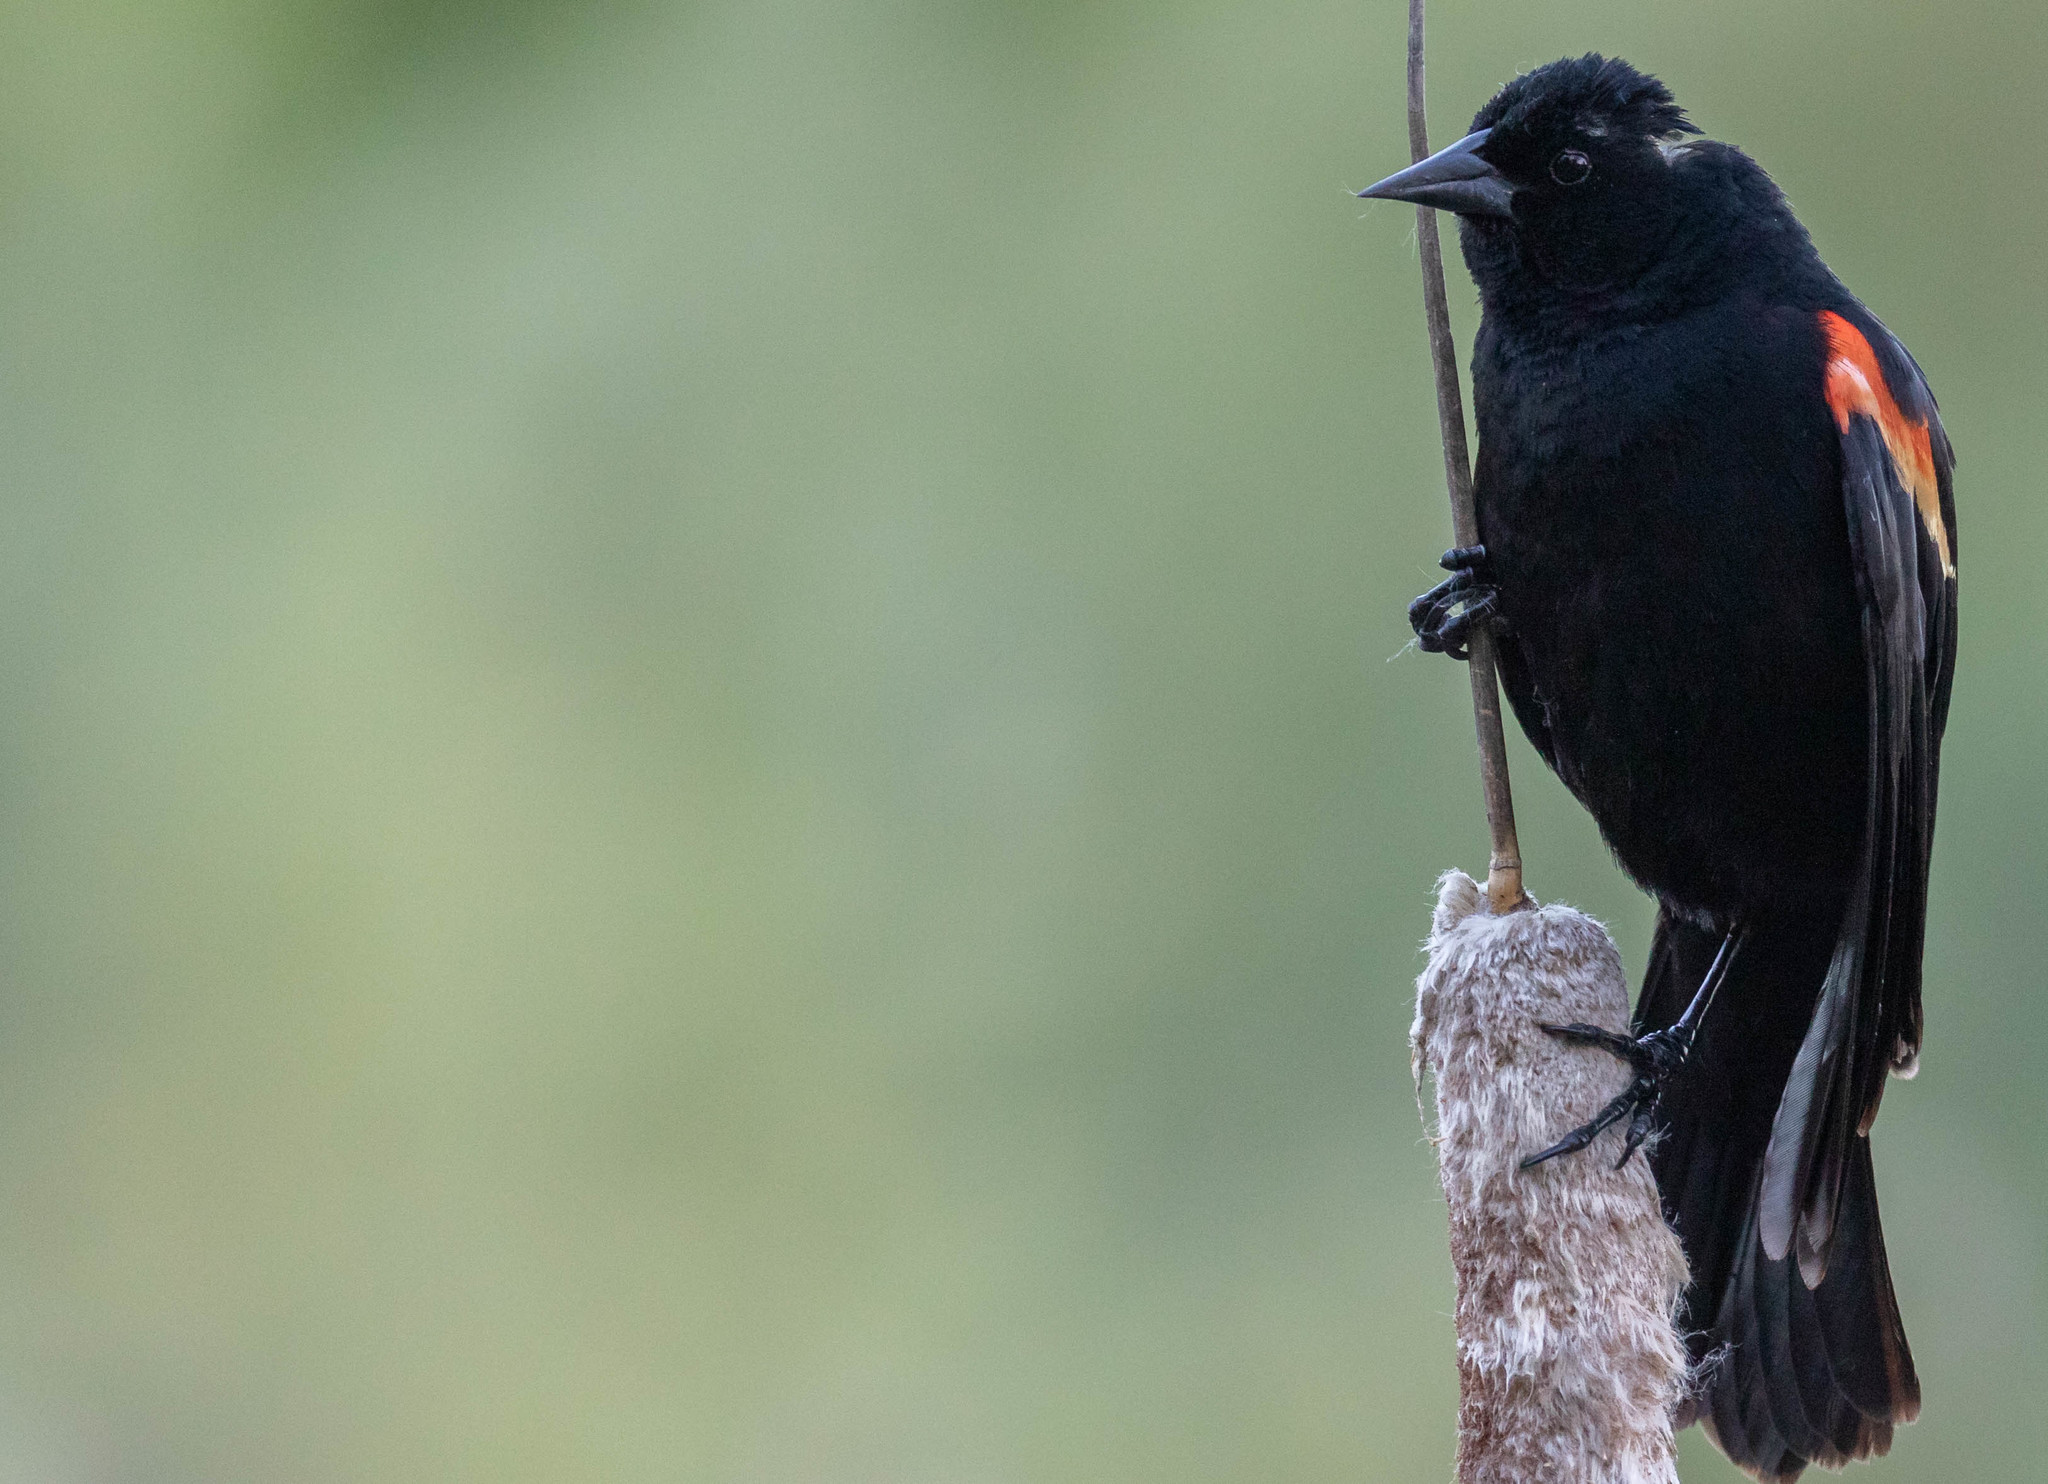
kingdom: Animalia
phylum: Chordata
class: Aves
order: Passeriformes
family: Icteridae
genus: Agelaius
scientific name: Agelaius phoeniceus
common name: Red-winged blackbird
